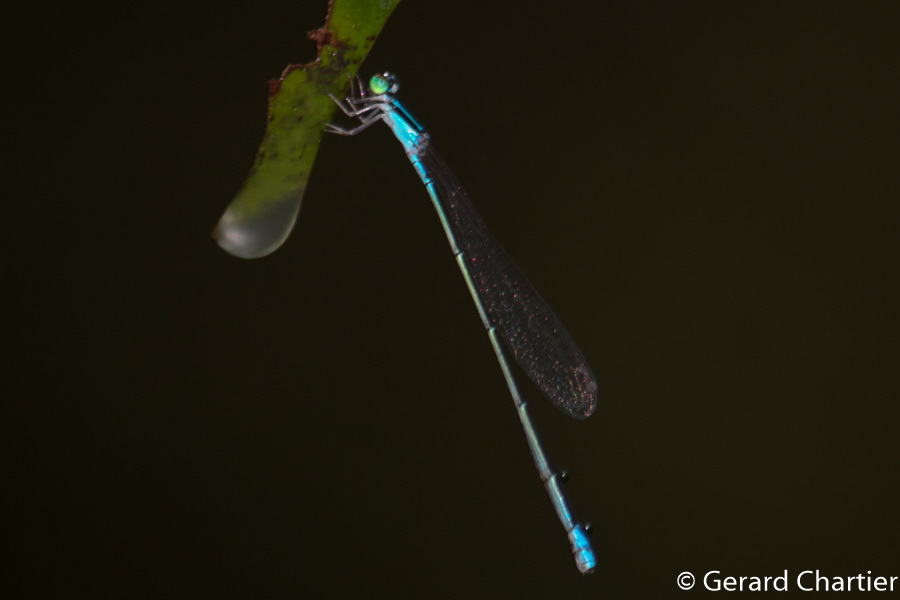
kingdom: Animalia
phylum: Arthropoda
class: Insecta
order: Odonata
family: Coenagrionidae
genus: Aciagrion
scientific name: Aciagrion hisopa
